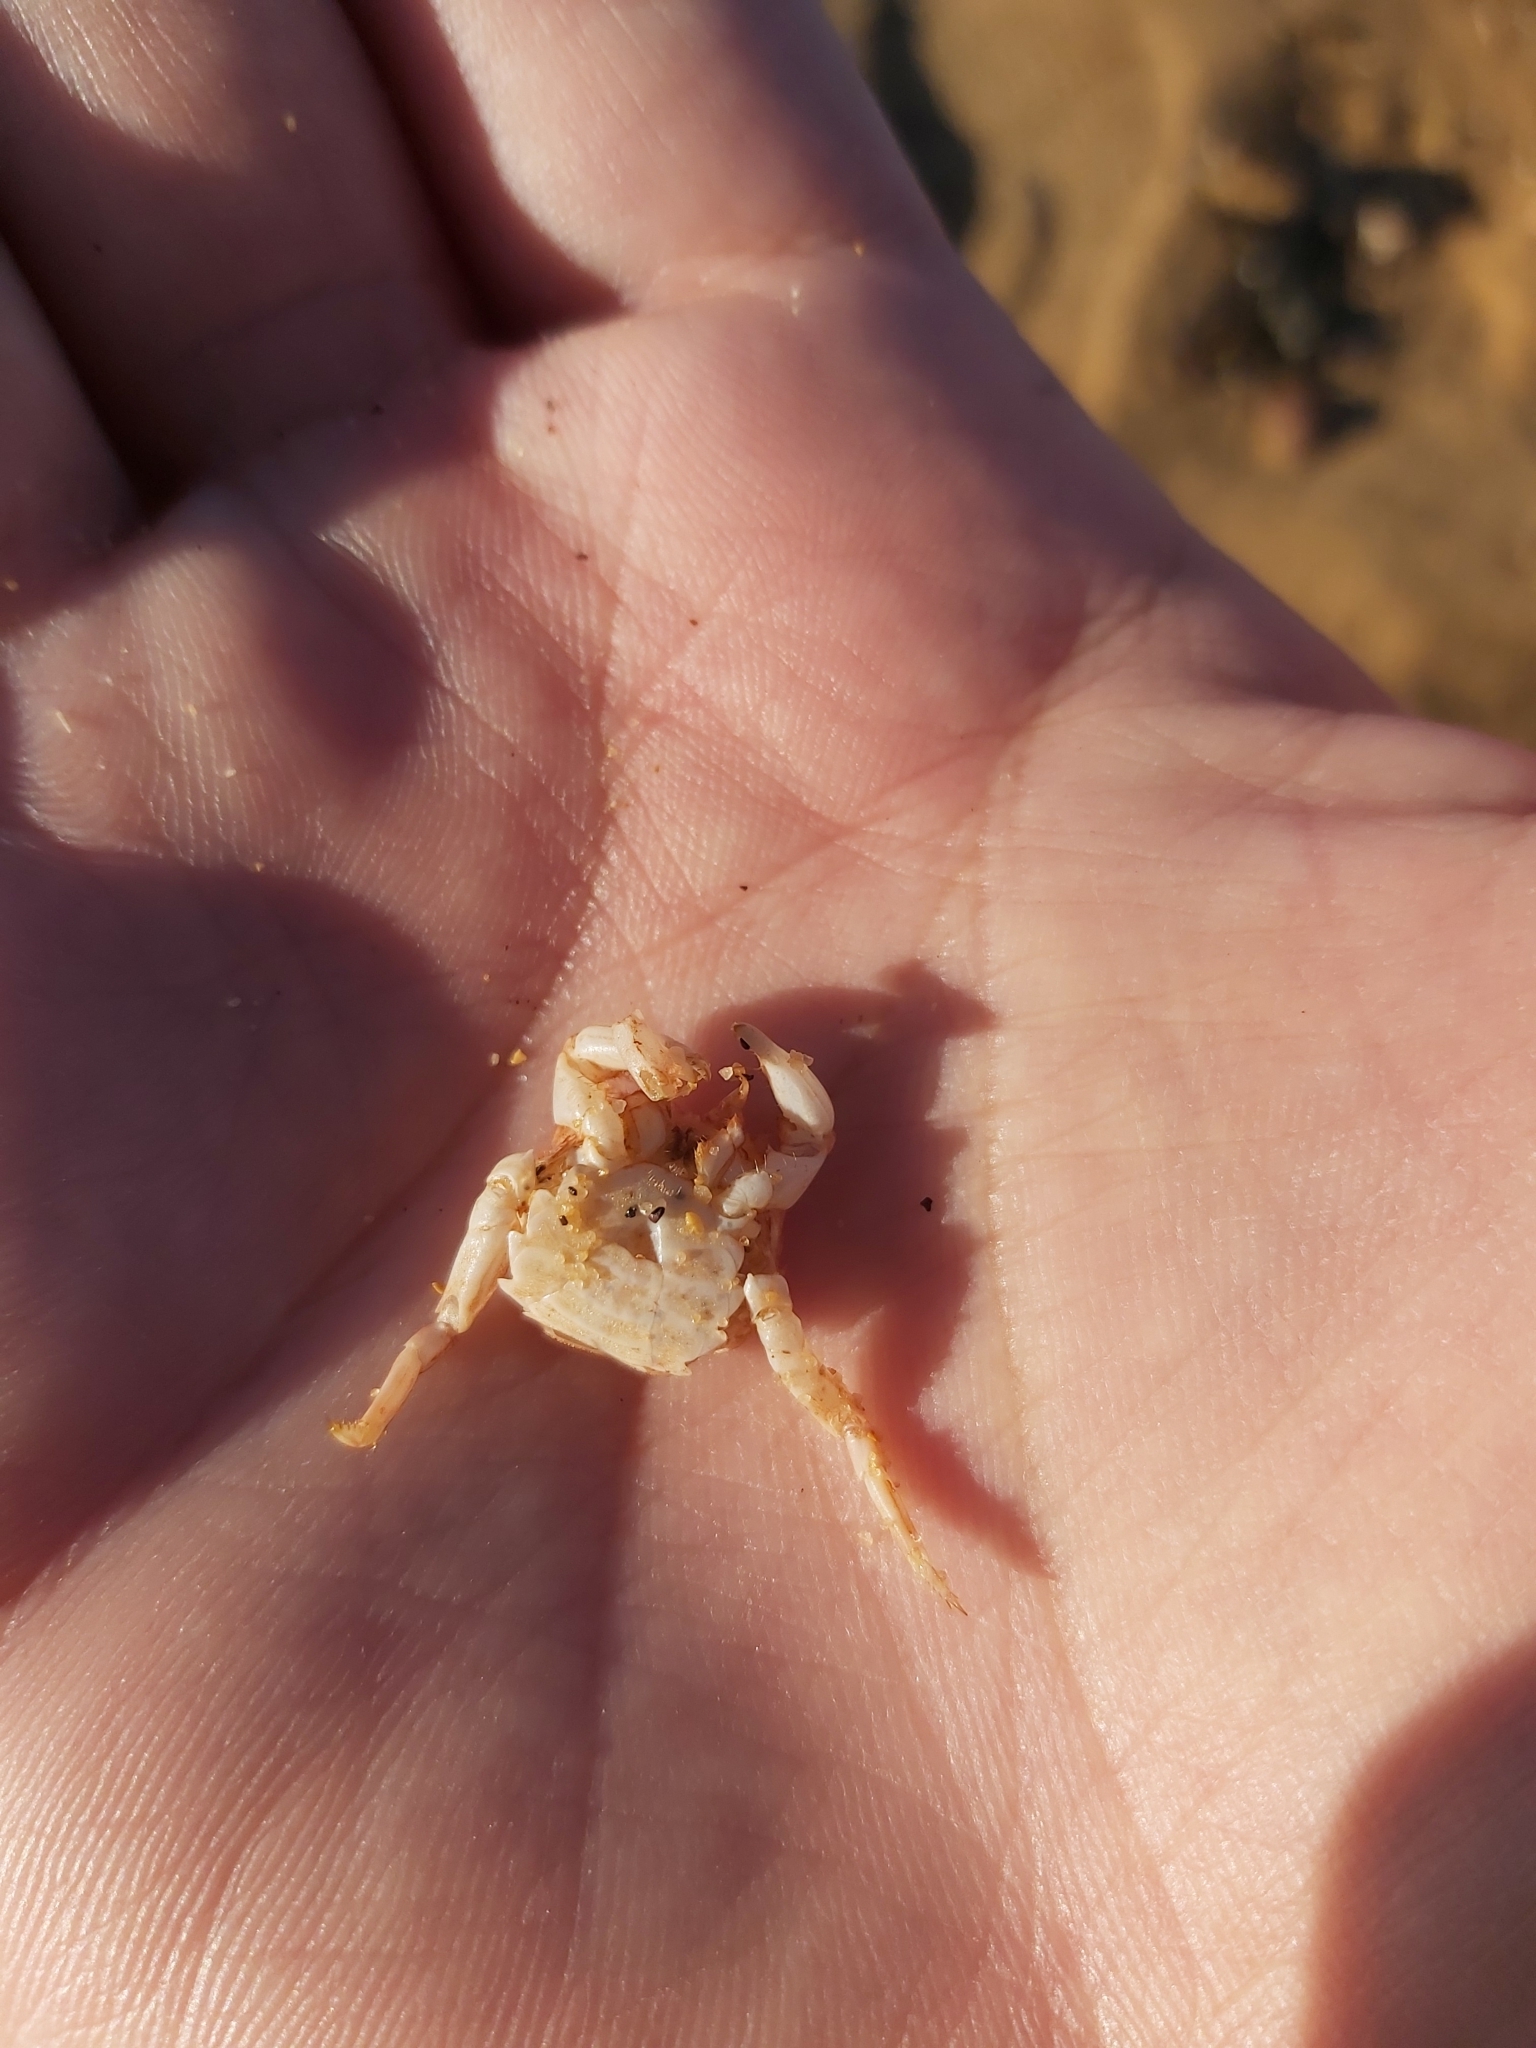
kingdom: Animalia
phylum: Arthropoda
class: Malacostraca
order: Decapoda
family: Plagusiidae
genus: Guinusia
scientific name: Guinusia chabrus
